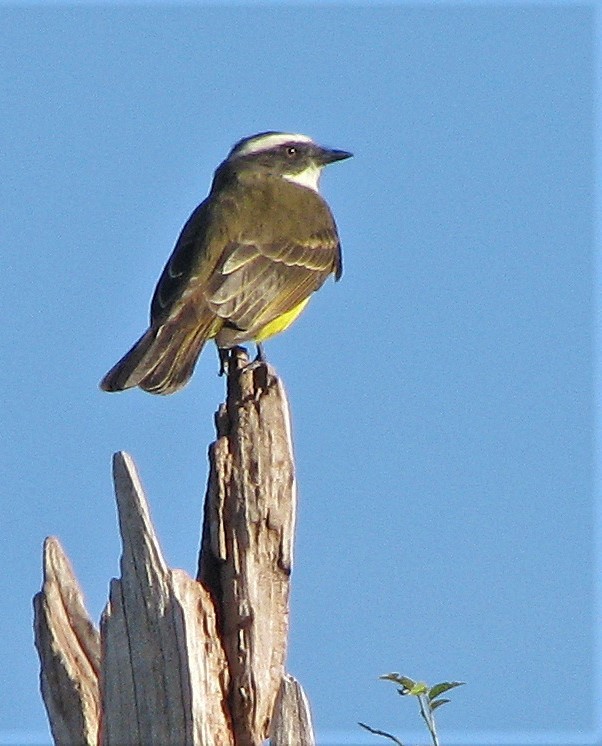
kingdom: Animalia
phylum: Chordata
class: Aves
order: Passeriformes
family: Tyrannidae
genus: Myiozetetes
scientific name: Myiozetetes similis
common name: Social flycatcher
